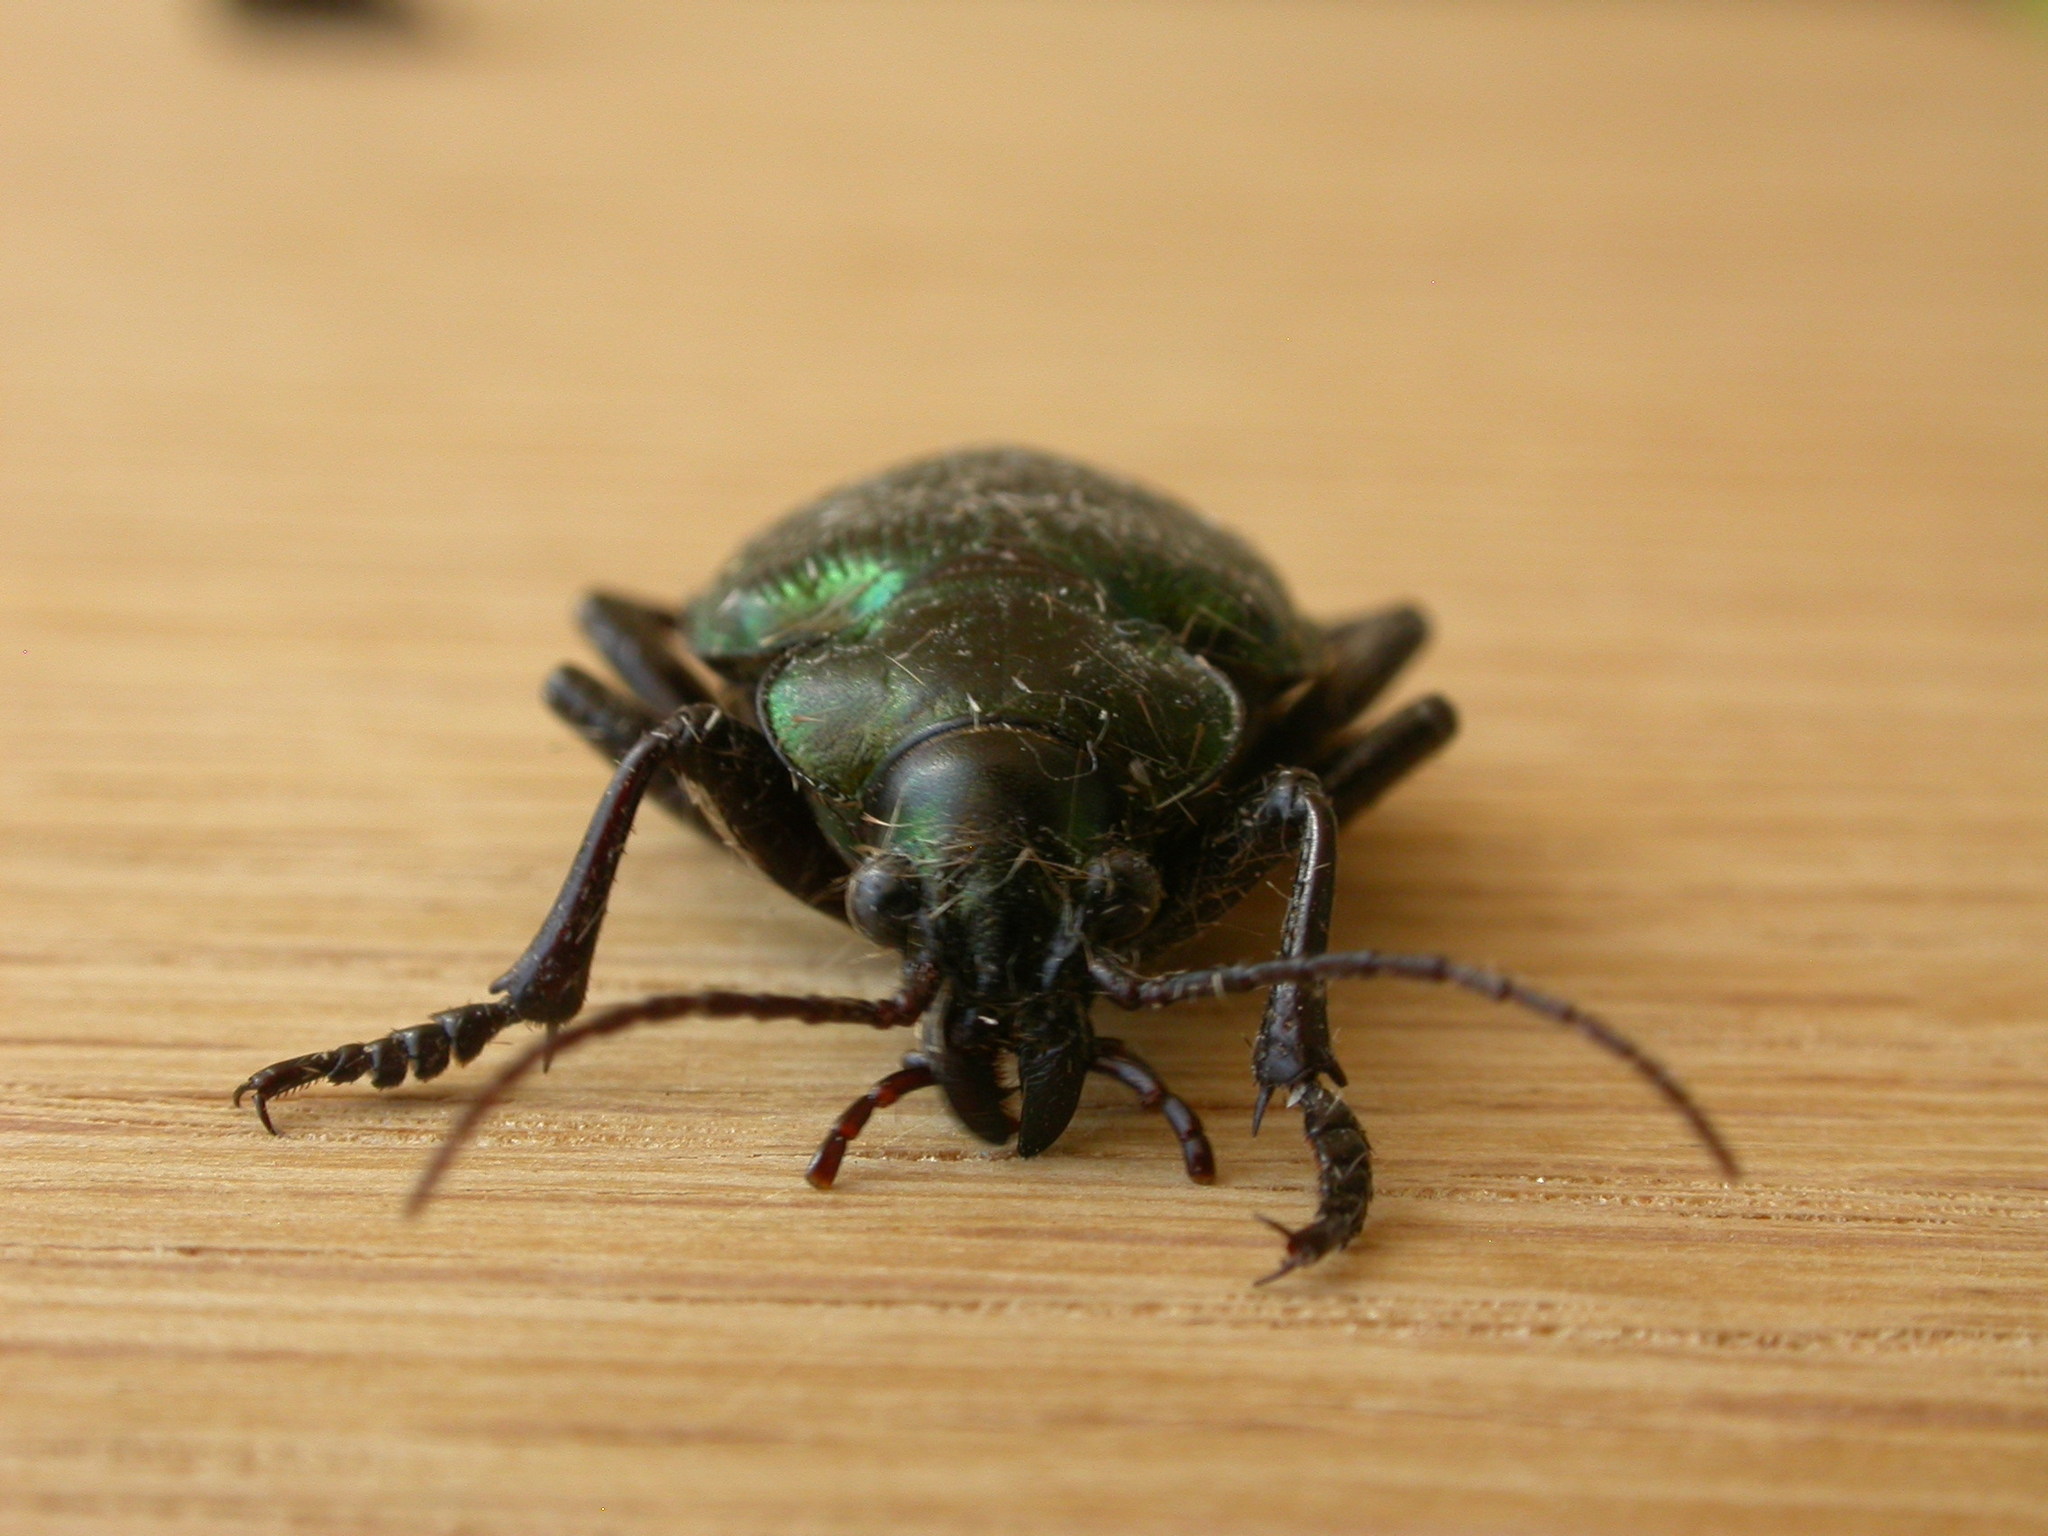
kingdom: Animalia
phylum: Arthropoda
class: Insecta
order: Coleoptera
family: Carabidae
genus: Calosoma
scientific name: Calosoma schayeri
